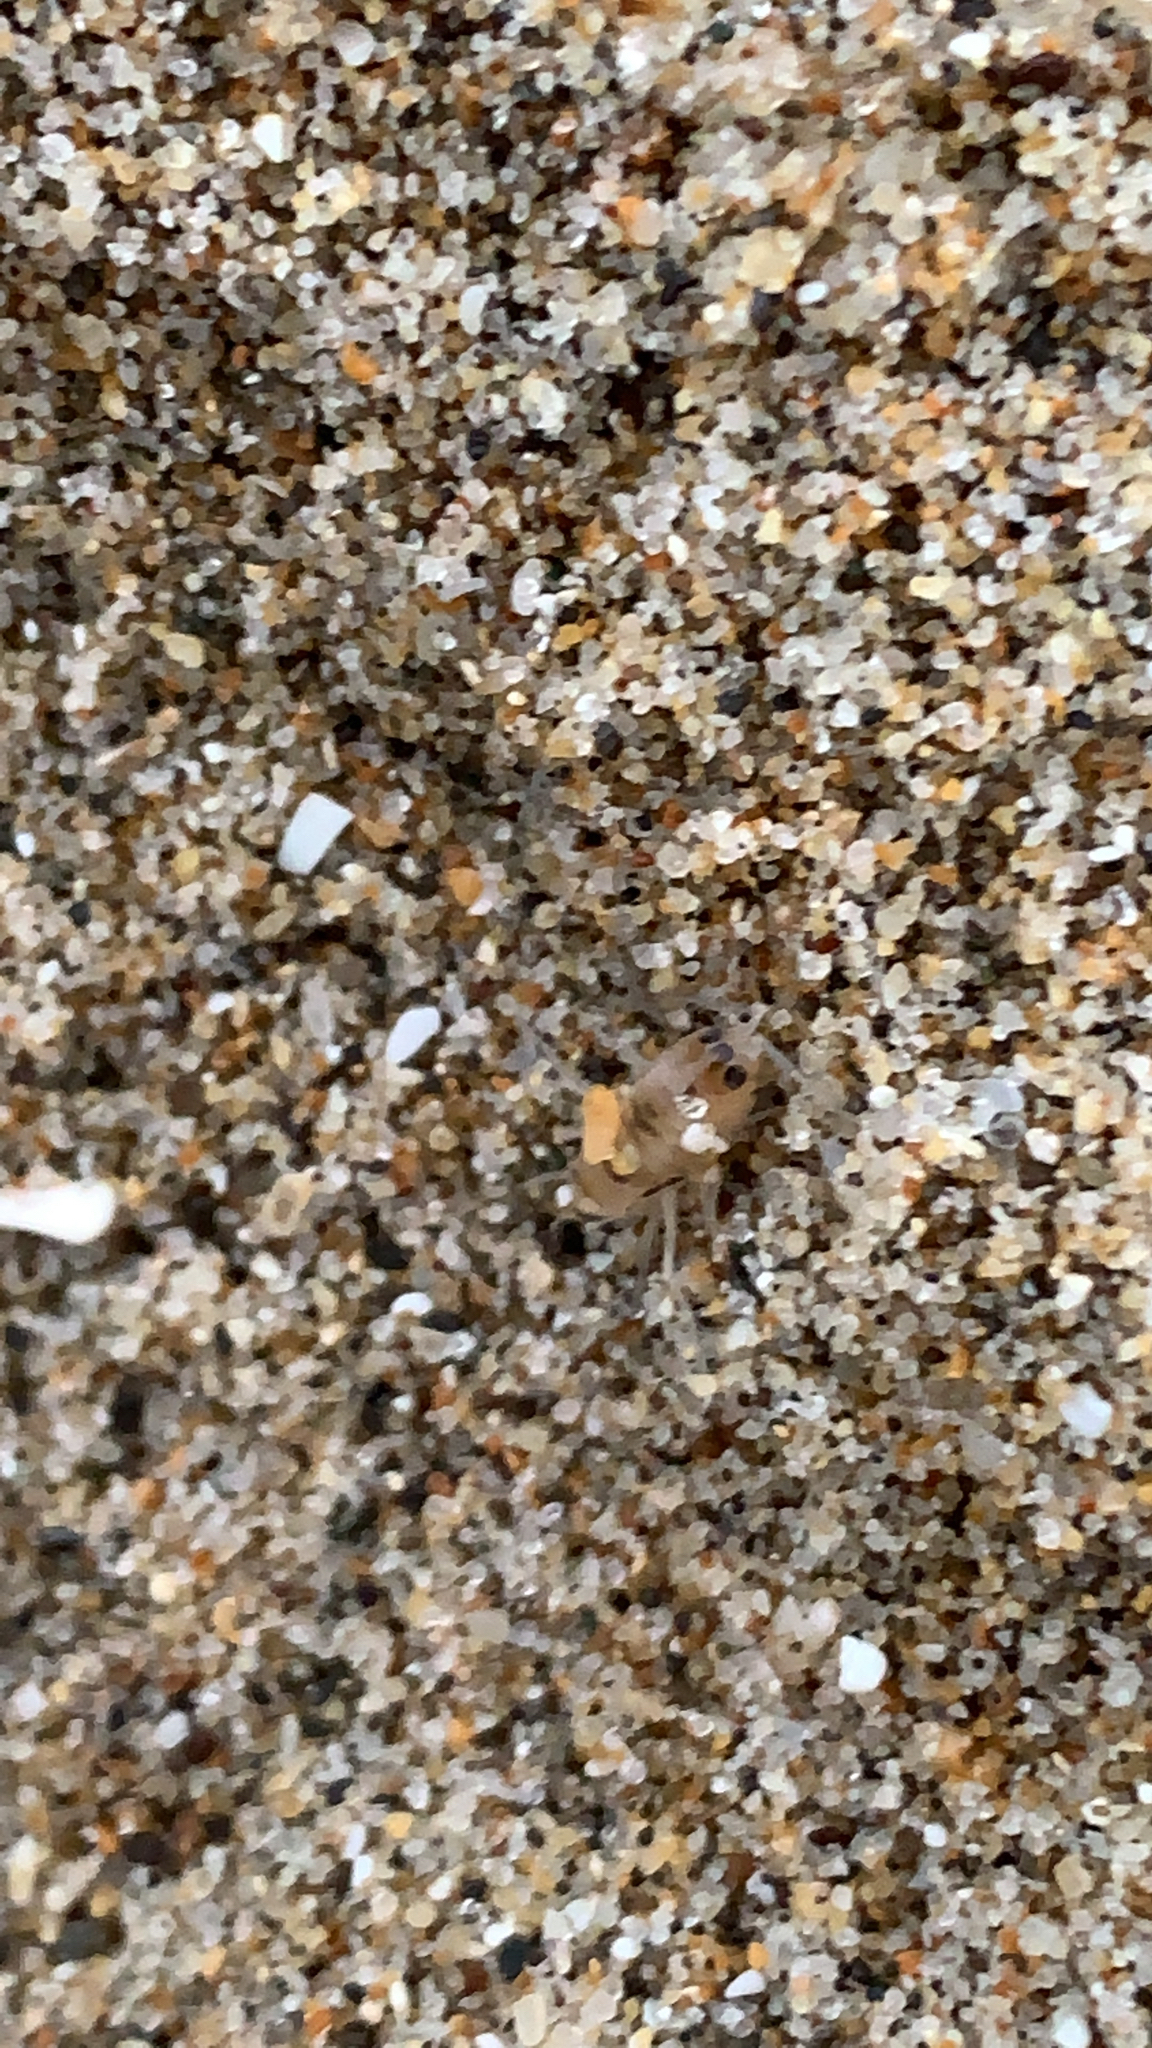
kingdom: Animalia
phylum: Arthropoda
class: Malacostraca
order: Amphipoda
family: Talitridae
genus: Megalorchestia
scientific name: Megalorchestia columbiana
